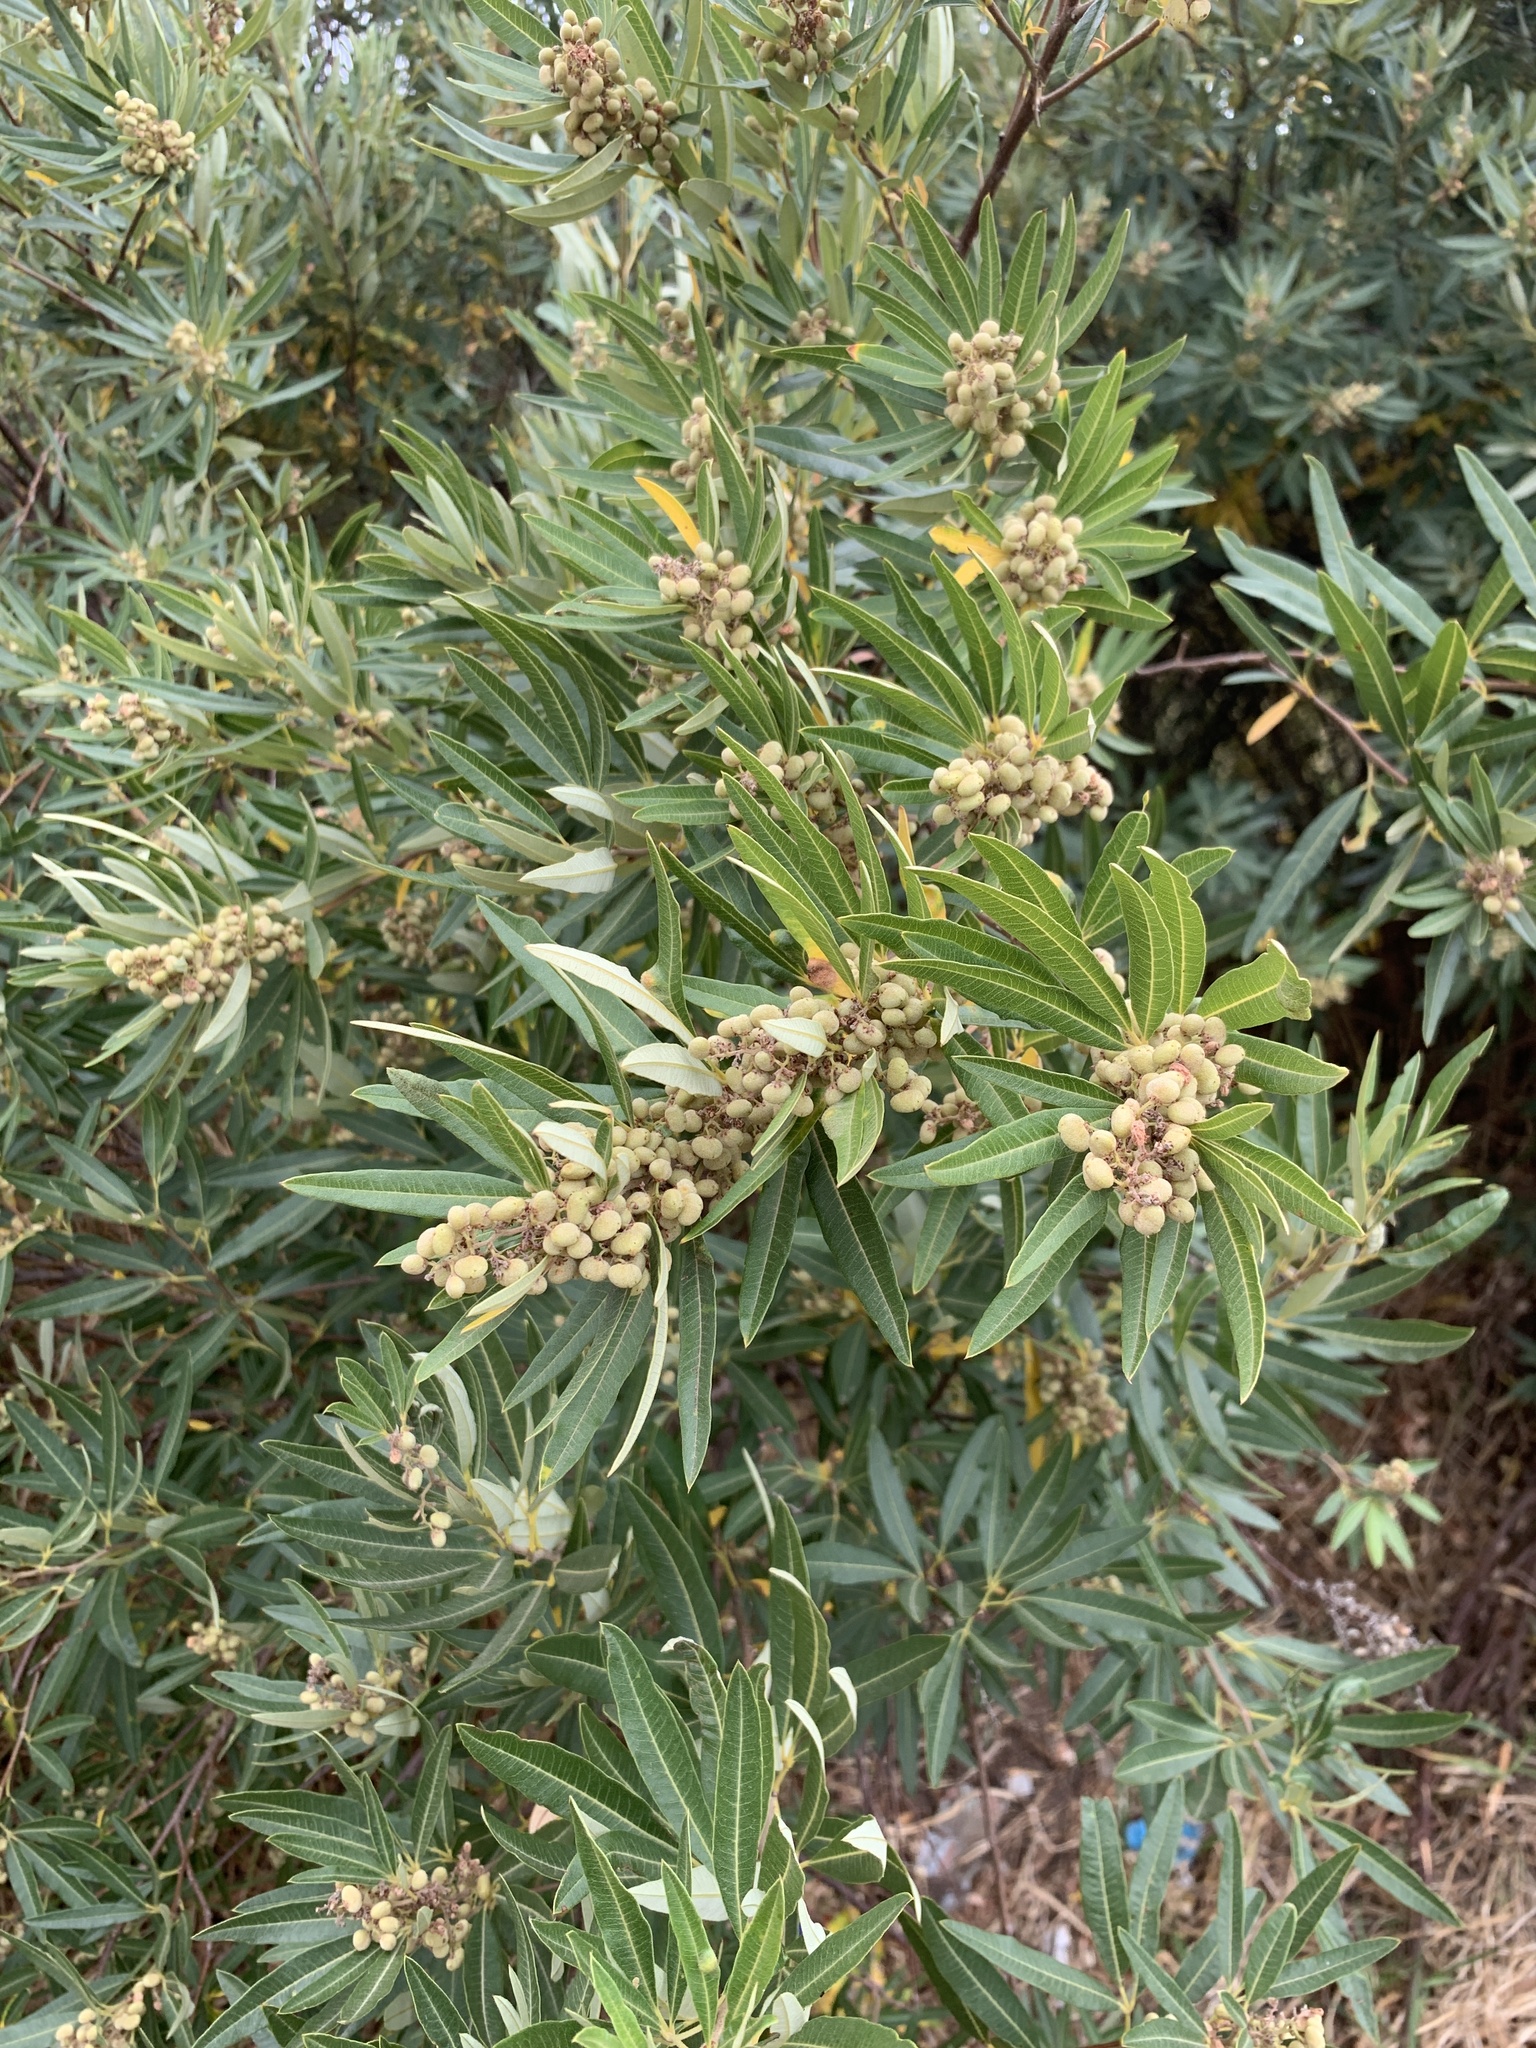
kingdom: Plantae
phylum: Tracheophyta
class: Magnoliopsida
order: Sapindales
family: Anacardiaceae
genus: Searsia
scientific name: Searsia angustifolia
